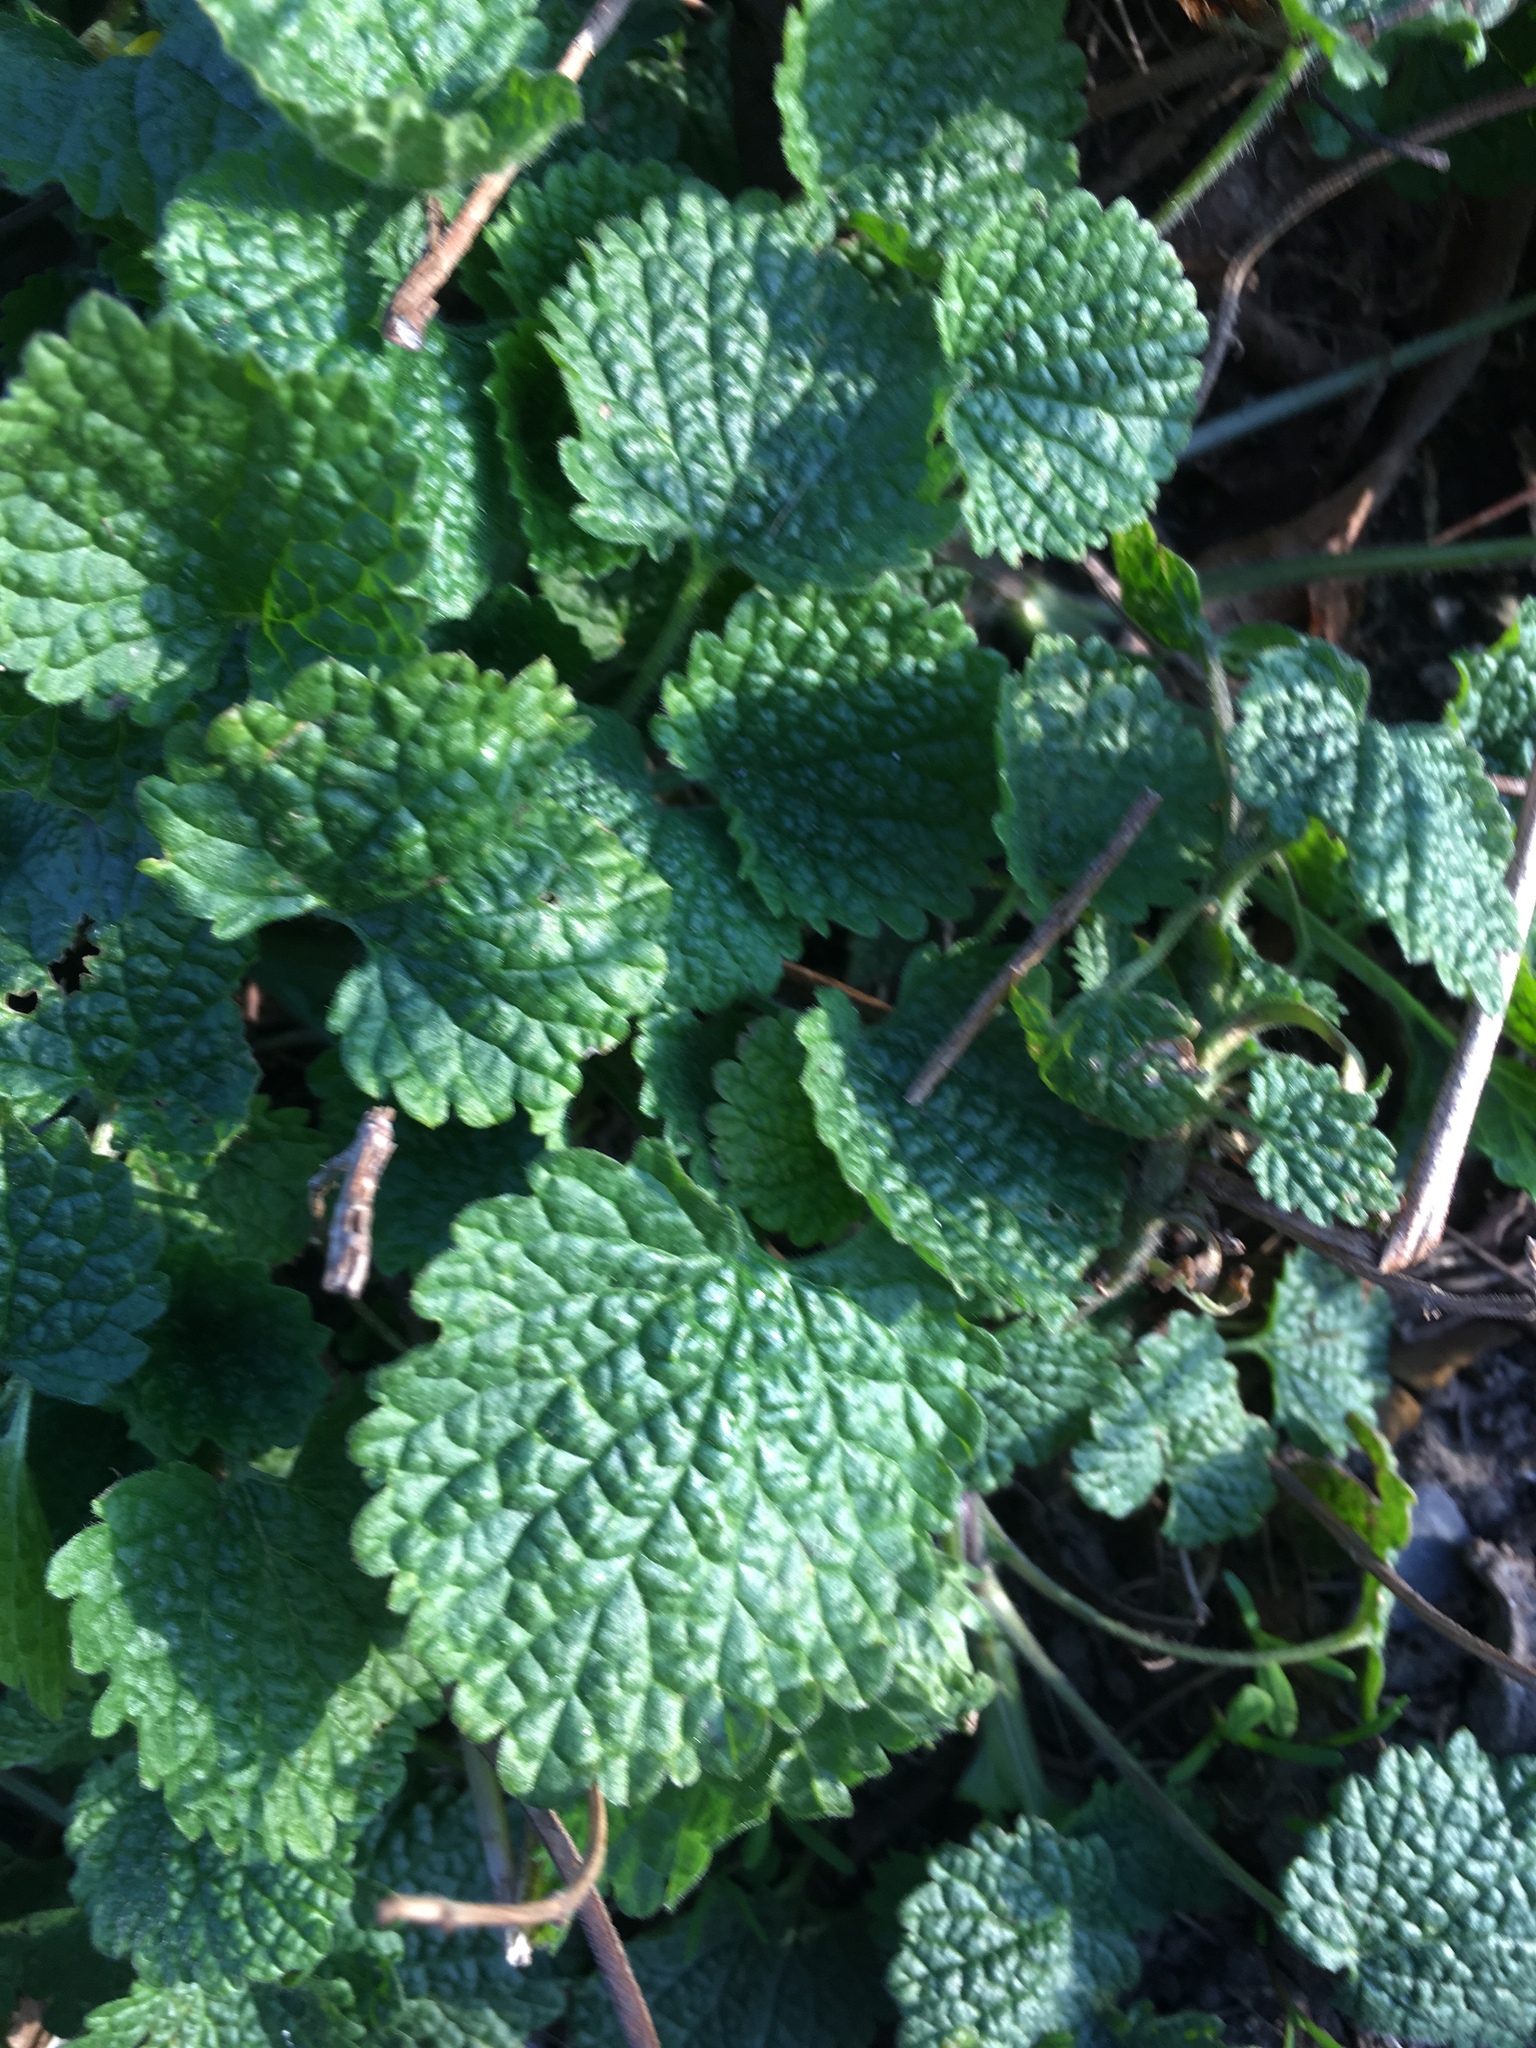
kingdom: Plantae
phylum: Tracheophyta
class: Magnoliopsida
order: Lamiales
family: Lamiaceae
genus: Ballota
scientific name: Ballota nigra
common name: Black horehound
